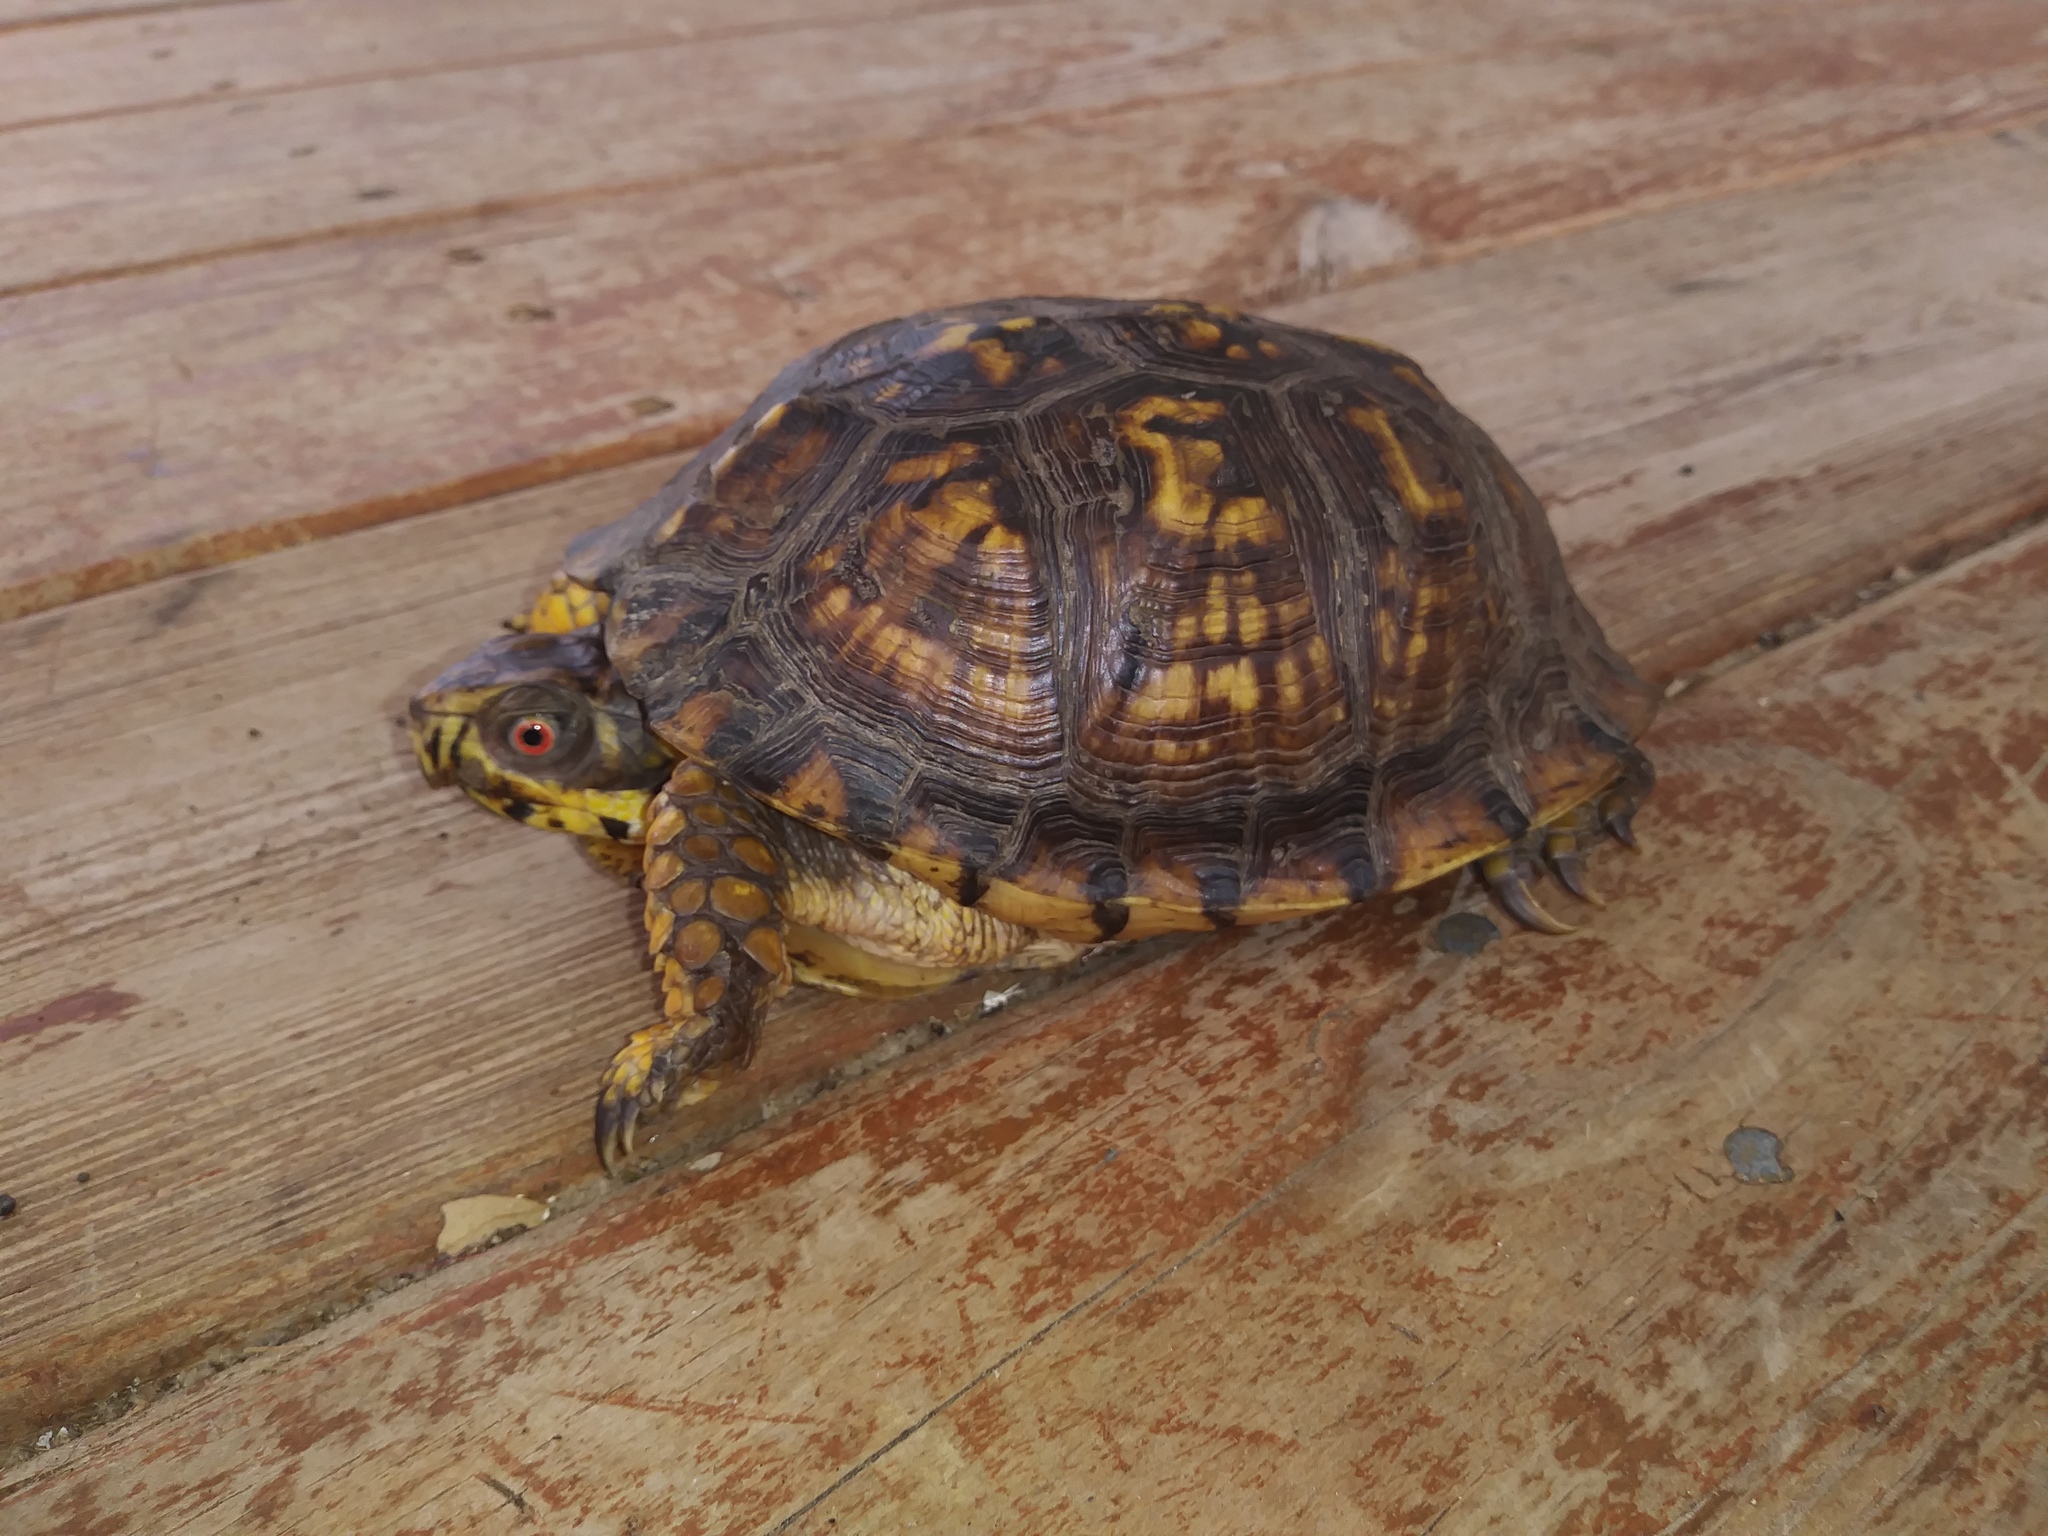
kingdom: Animalia
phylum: Chordata
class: Testudines
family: Emydidae
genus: Terrapene
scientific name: Terrapene carolina
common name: Common box turtle
